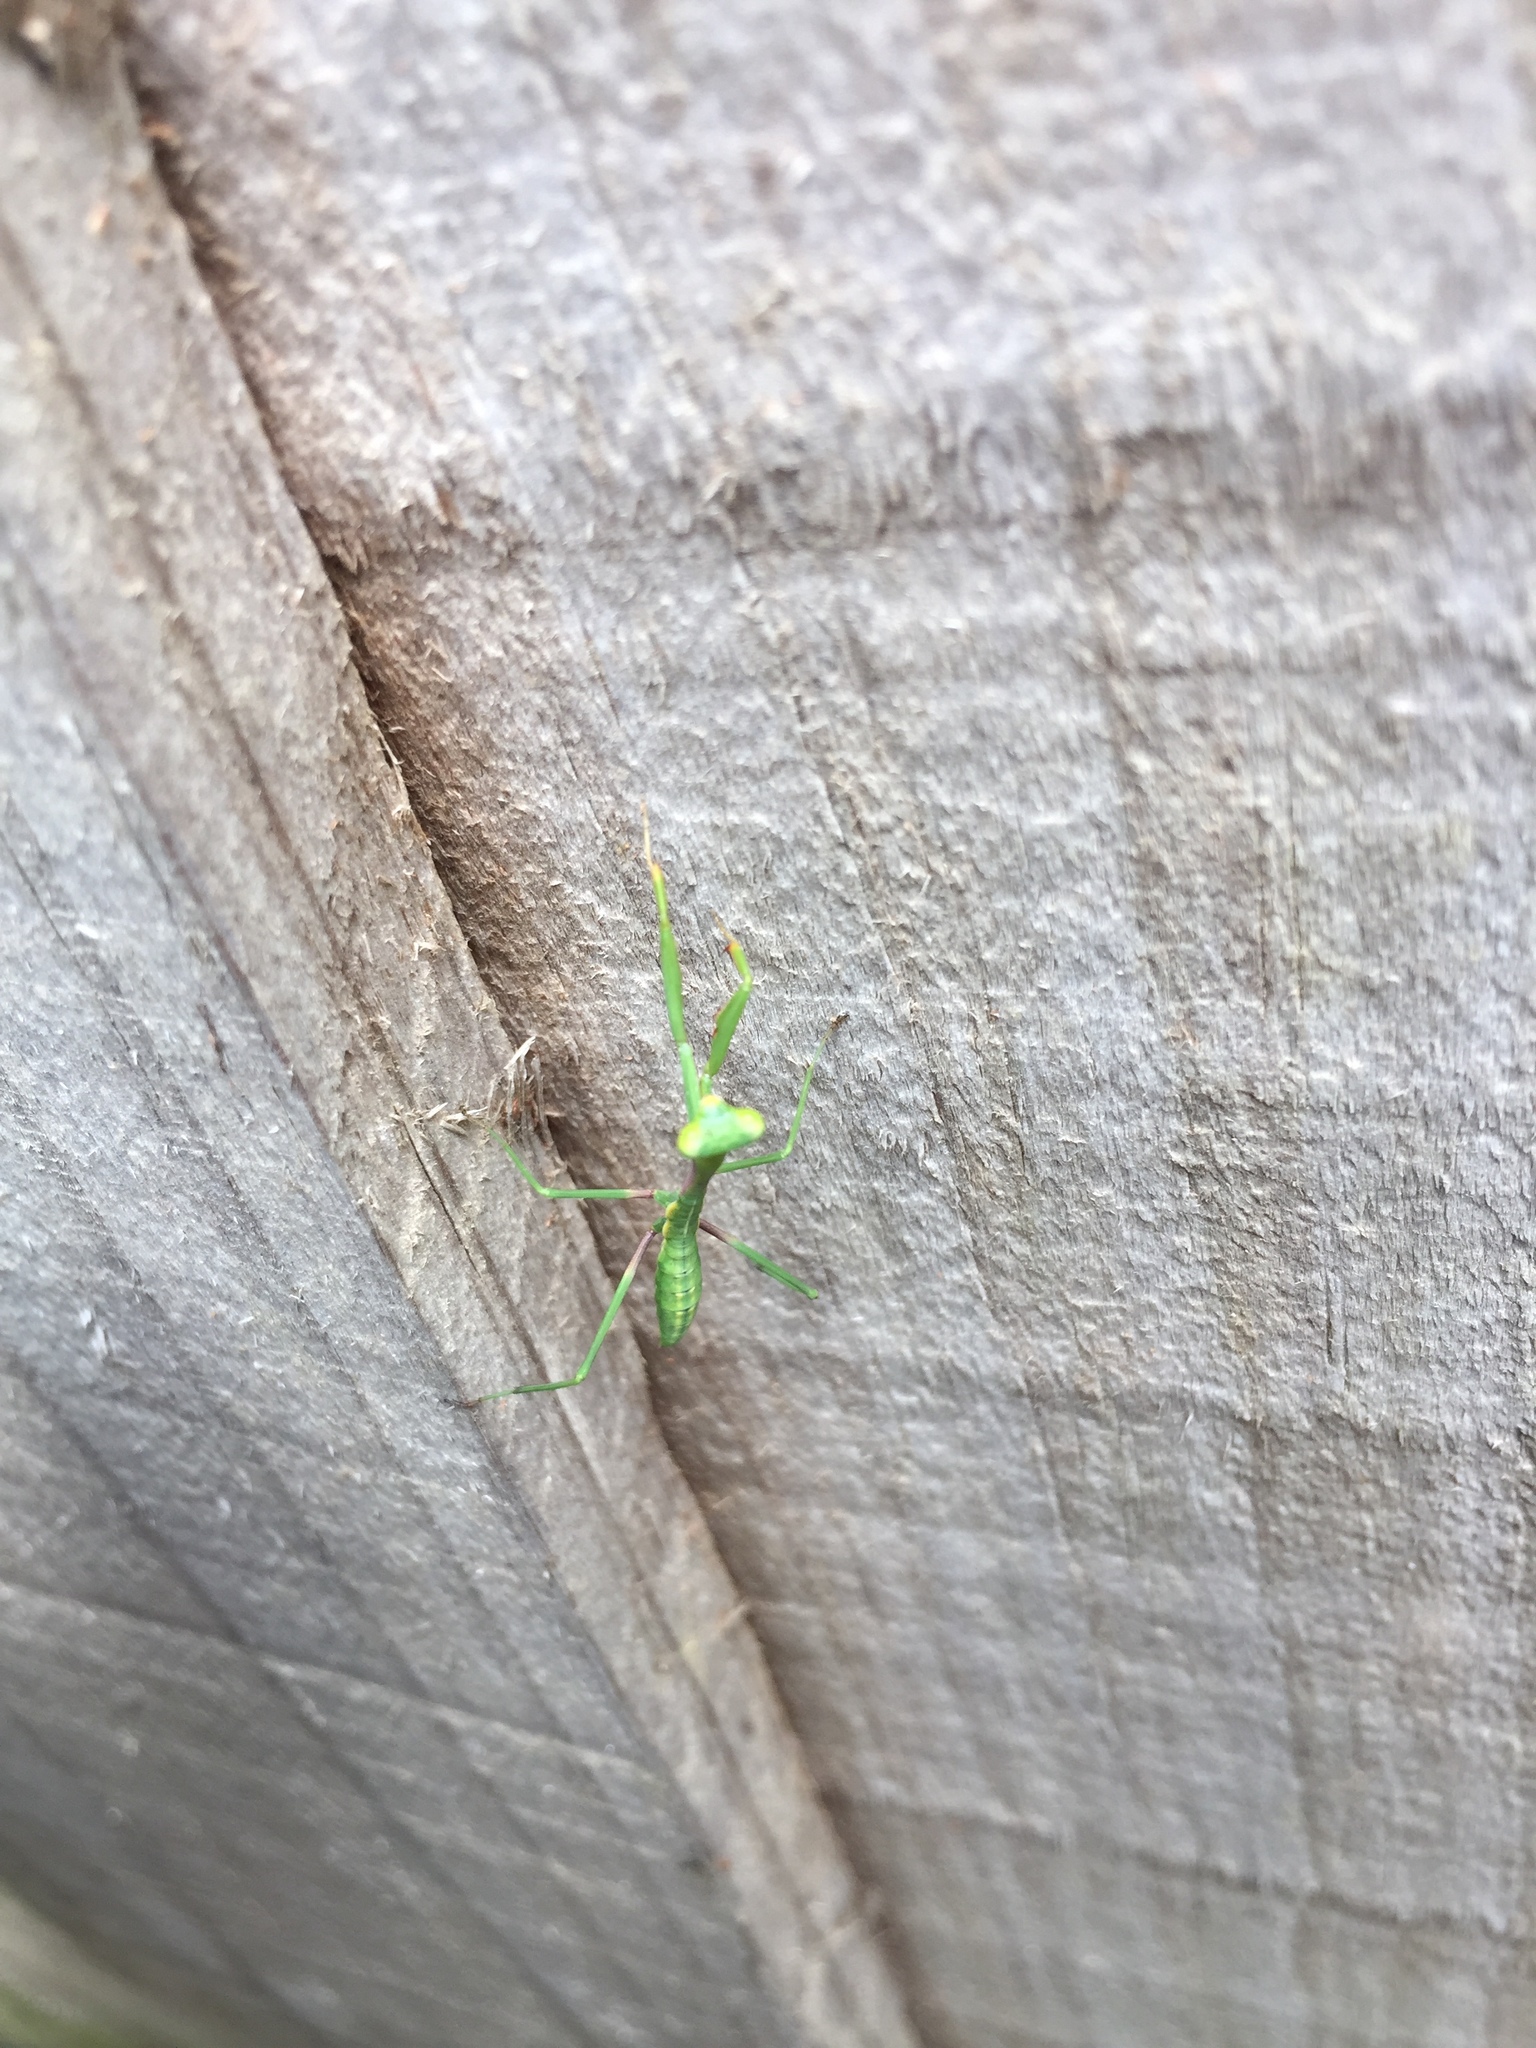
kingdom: Animalia
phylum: Arthropoda
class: Insecta
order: Mantodea
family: Mantidae
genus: Pseudomantis
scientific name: Pseudomantis albofimbriata
